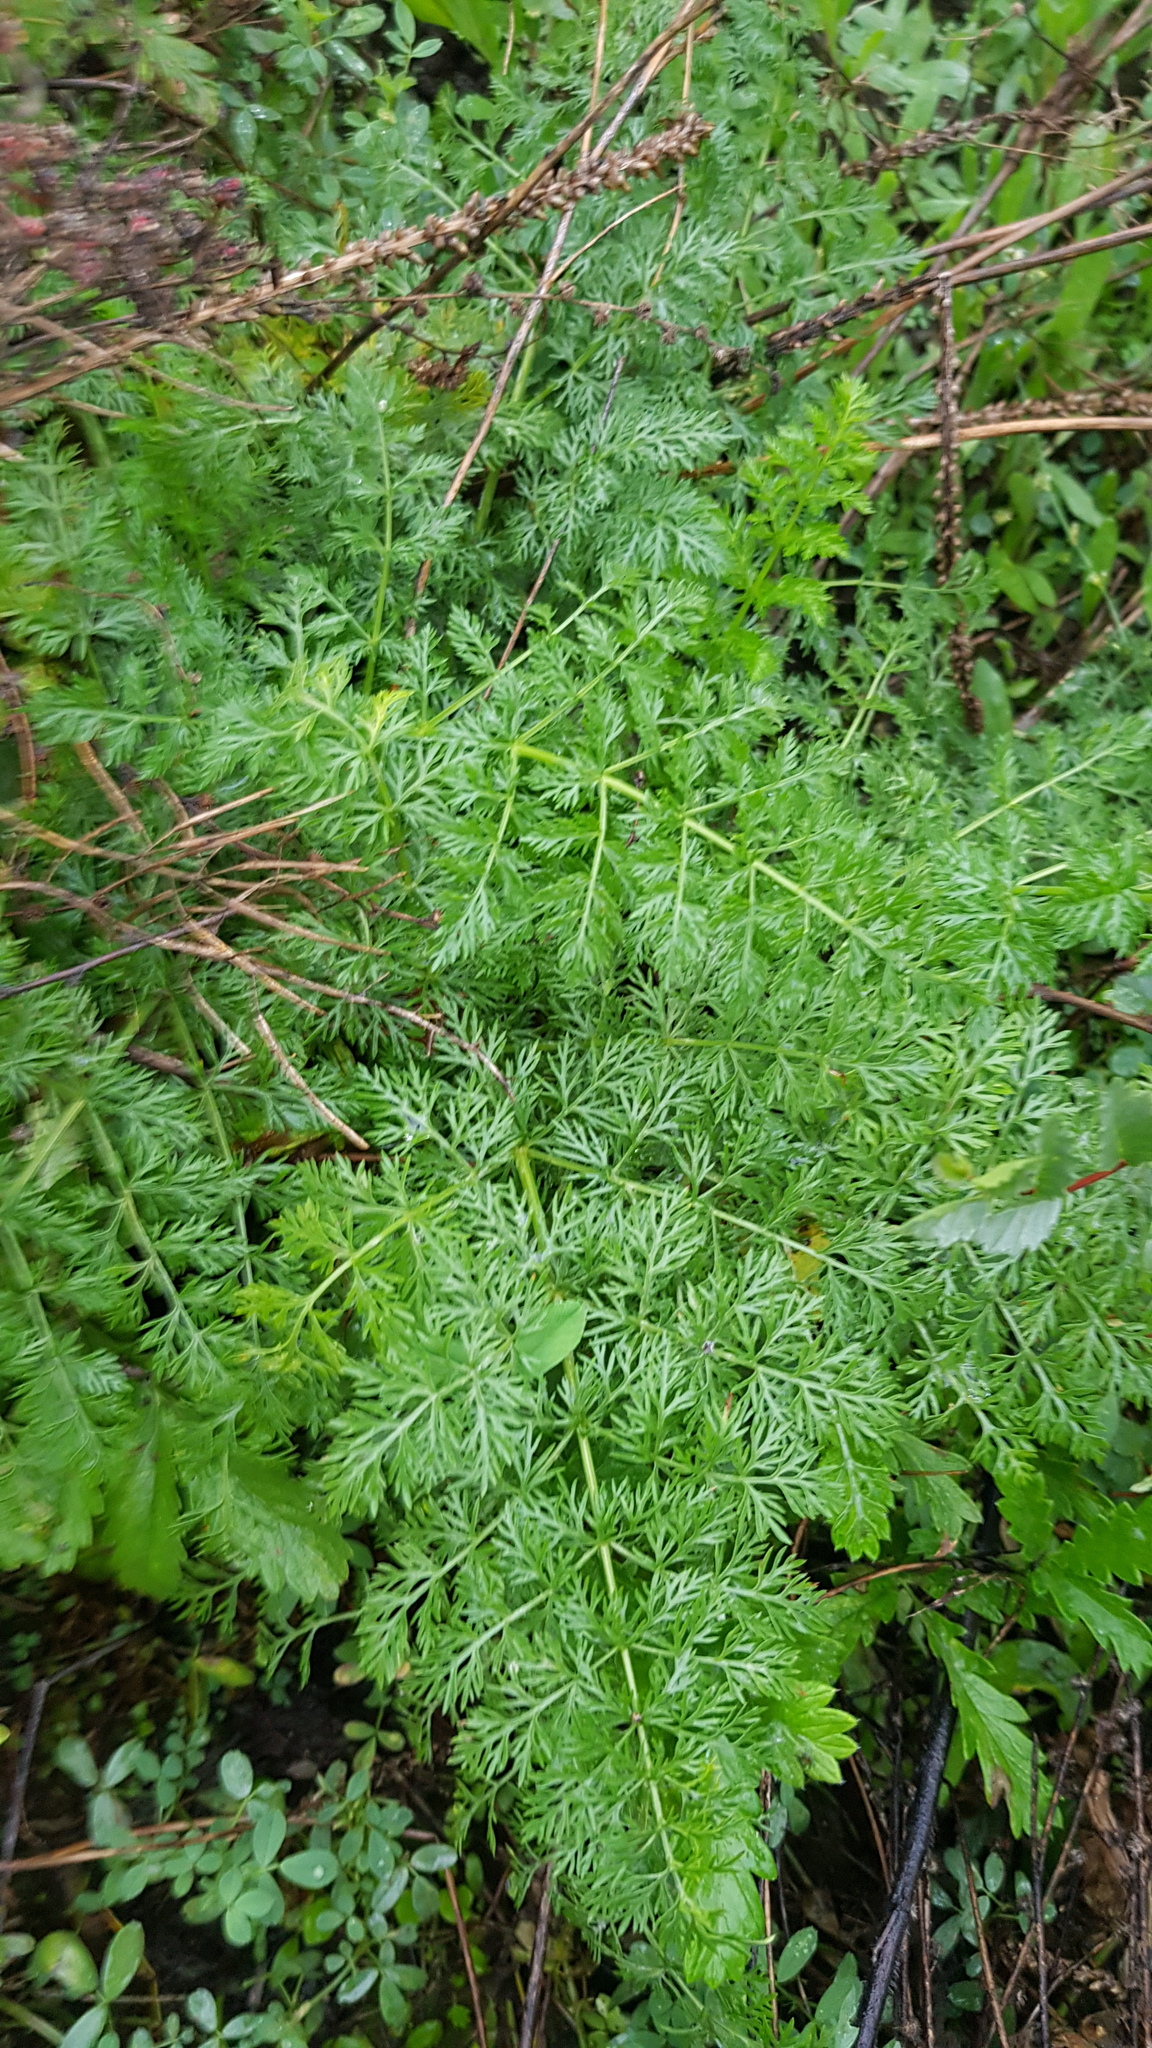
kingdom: Plantae
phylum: Tracheophyta
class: Magnoliopsida
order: Asterales
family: Asteraceae
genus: Artemisia
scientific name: Artemisia tanacetifolia
